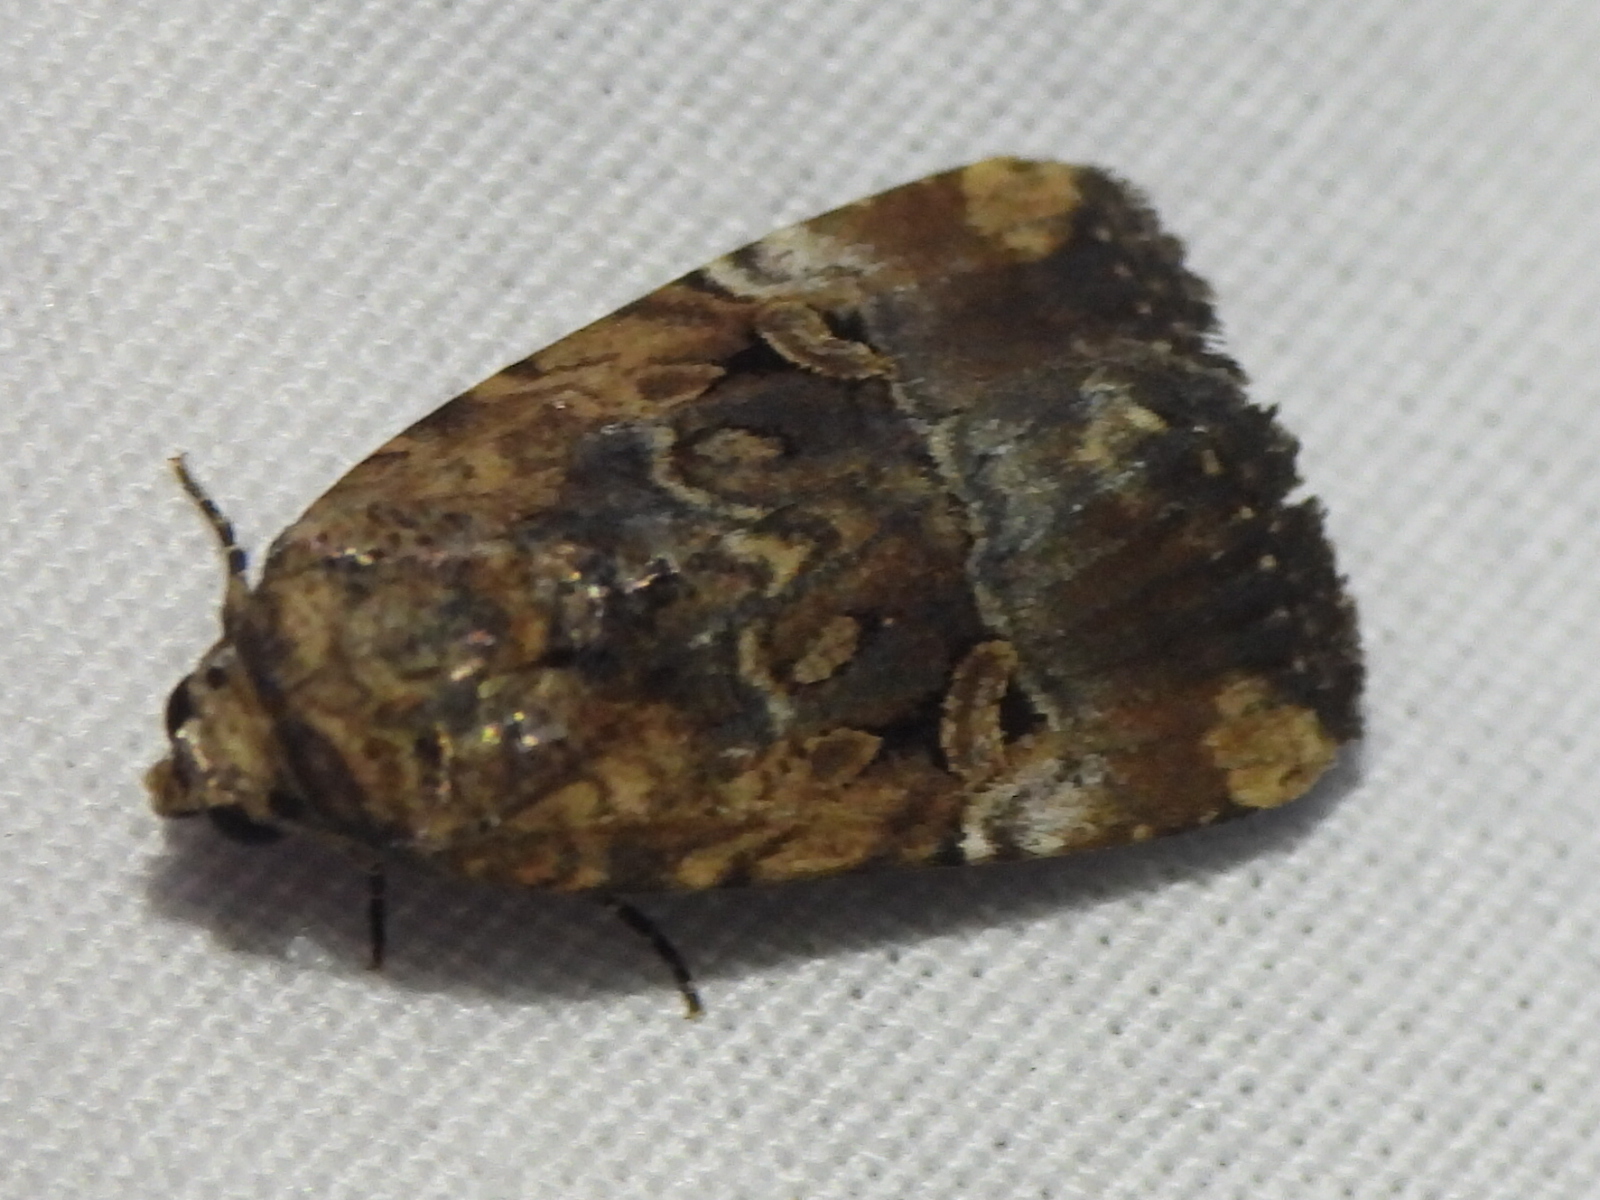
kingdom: Animalia
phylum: Arthropoda
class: Insecta
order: Lepidoptera
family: Noctuidae
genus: Elaphria
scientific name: Elaphria chalcedonia
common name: Chalcedony midget
